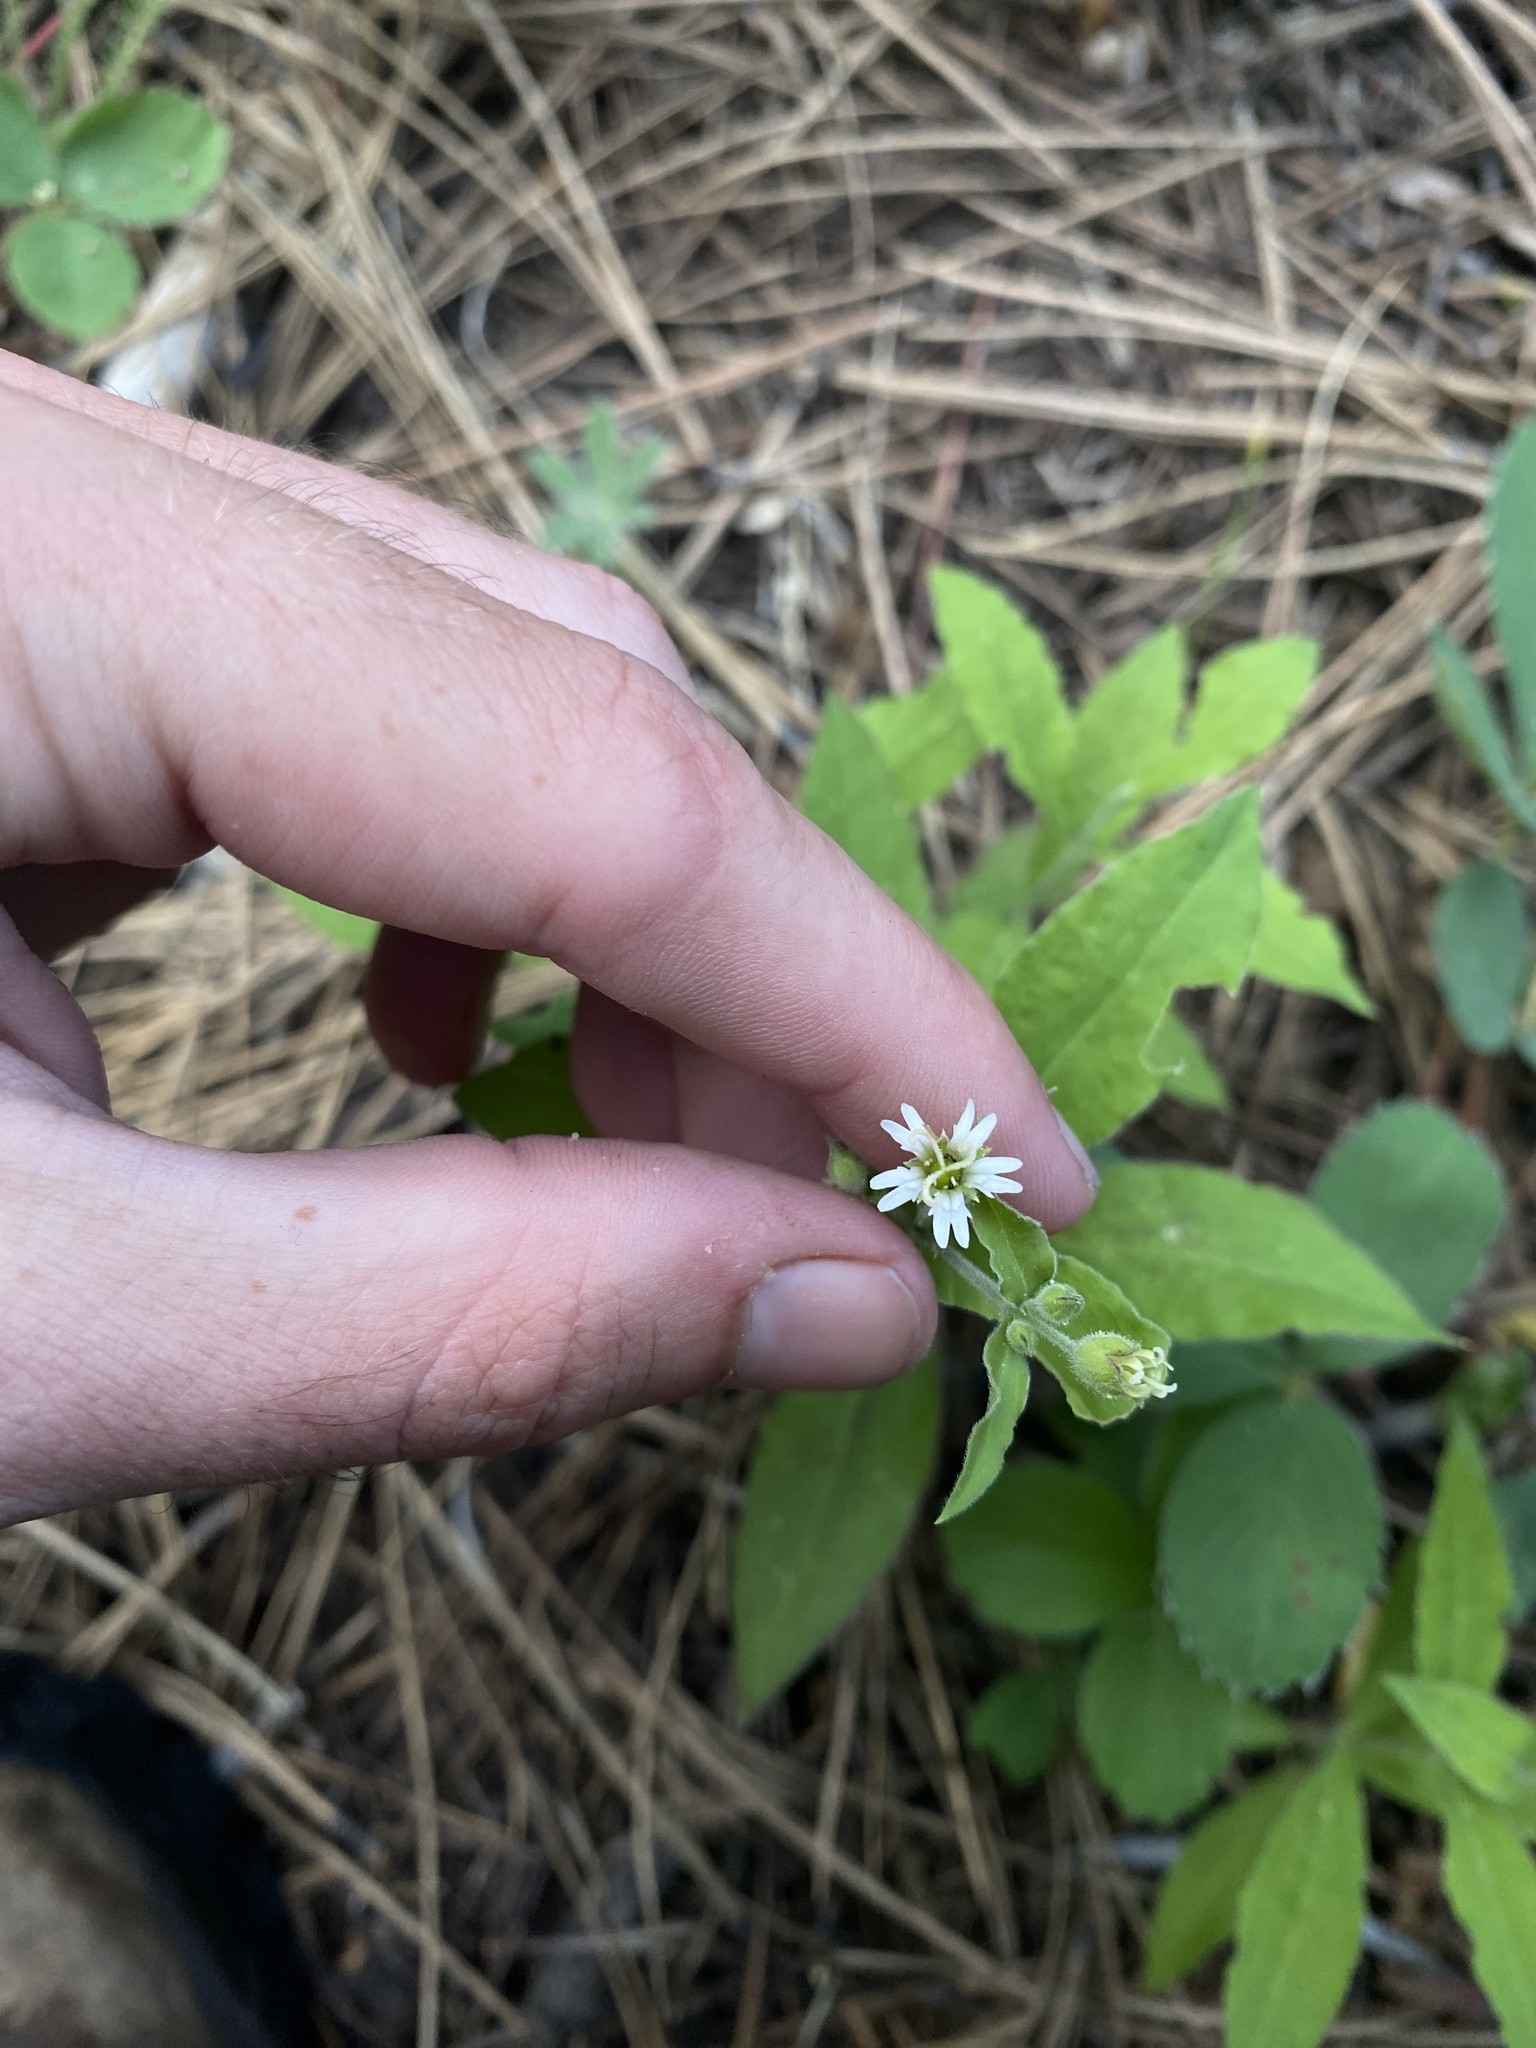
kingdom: Plantae
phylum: Tracheophyta
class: Magnoliopsida
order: Caryophyllales
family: Caryophyllaceae
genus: Silene
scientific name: Silene menziesii
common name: Menzies's catchfly
